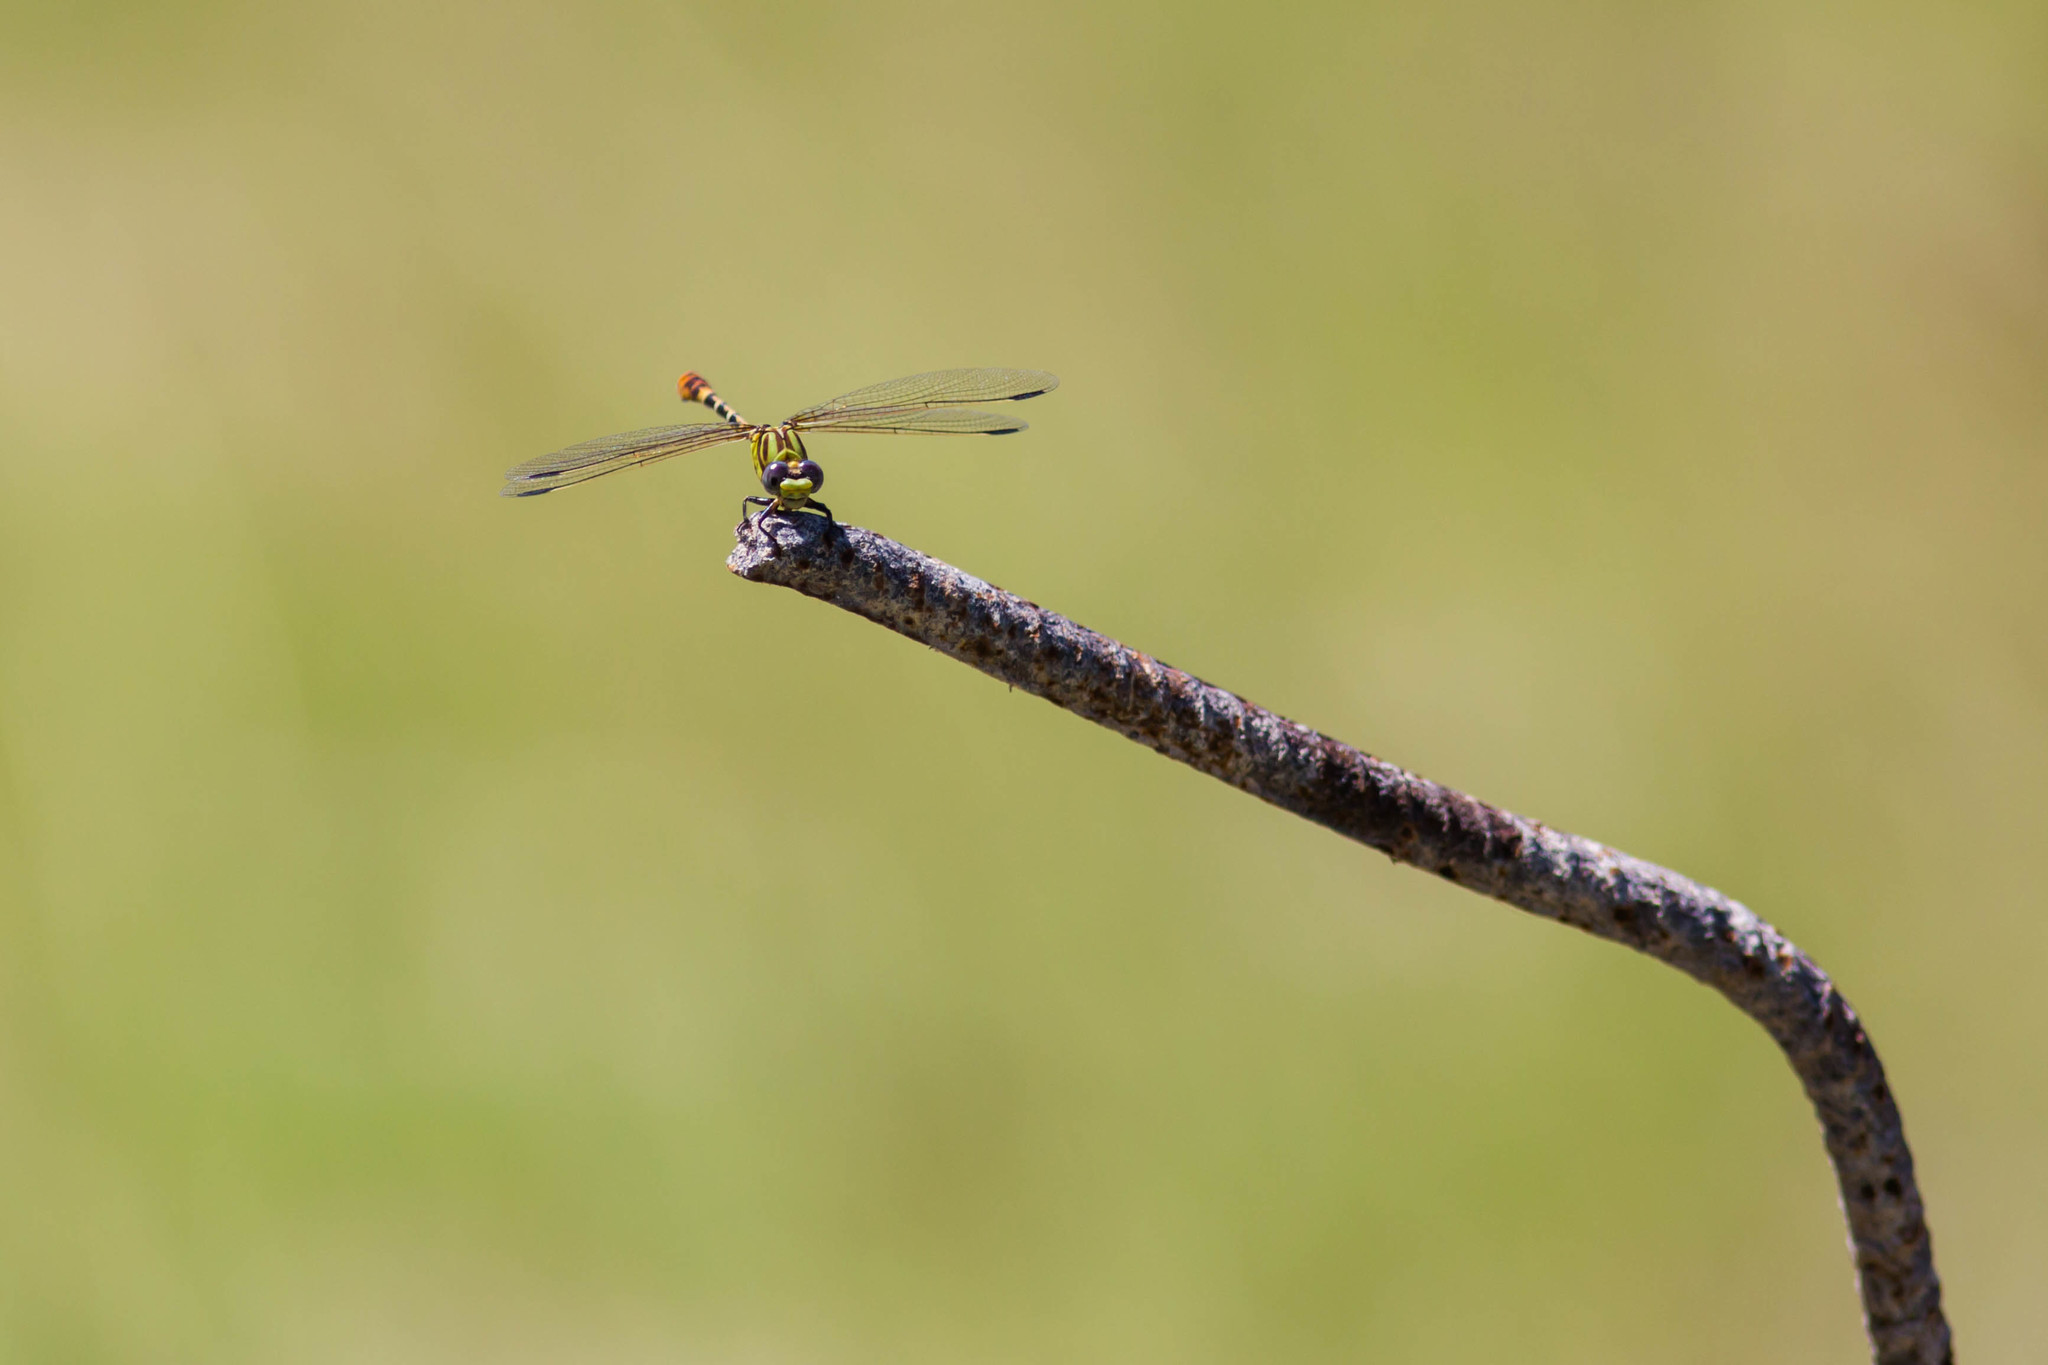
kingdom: Animalia
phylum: Arthropoda
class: Insecta
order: Odonata
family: Gomphidae
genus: Erpetogomphus
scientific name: Erpetogomphus designatus
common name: Eastern ringtail
